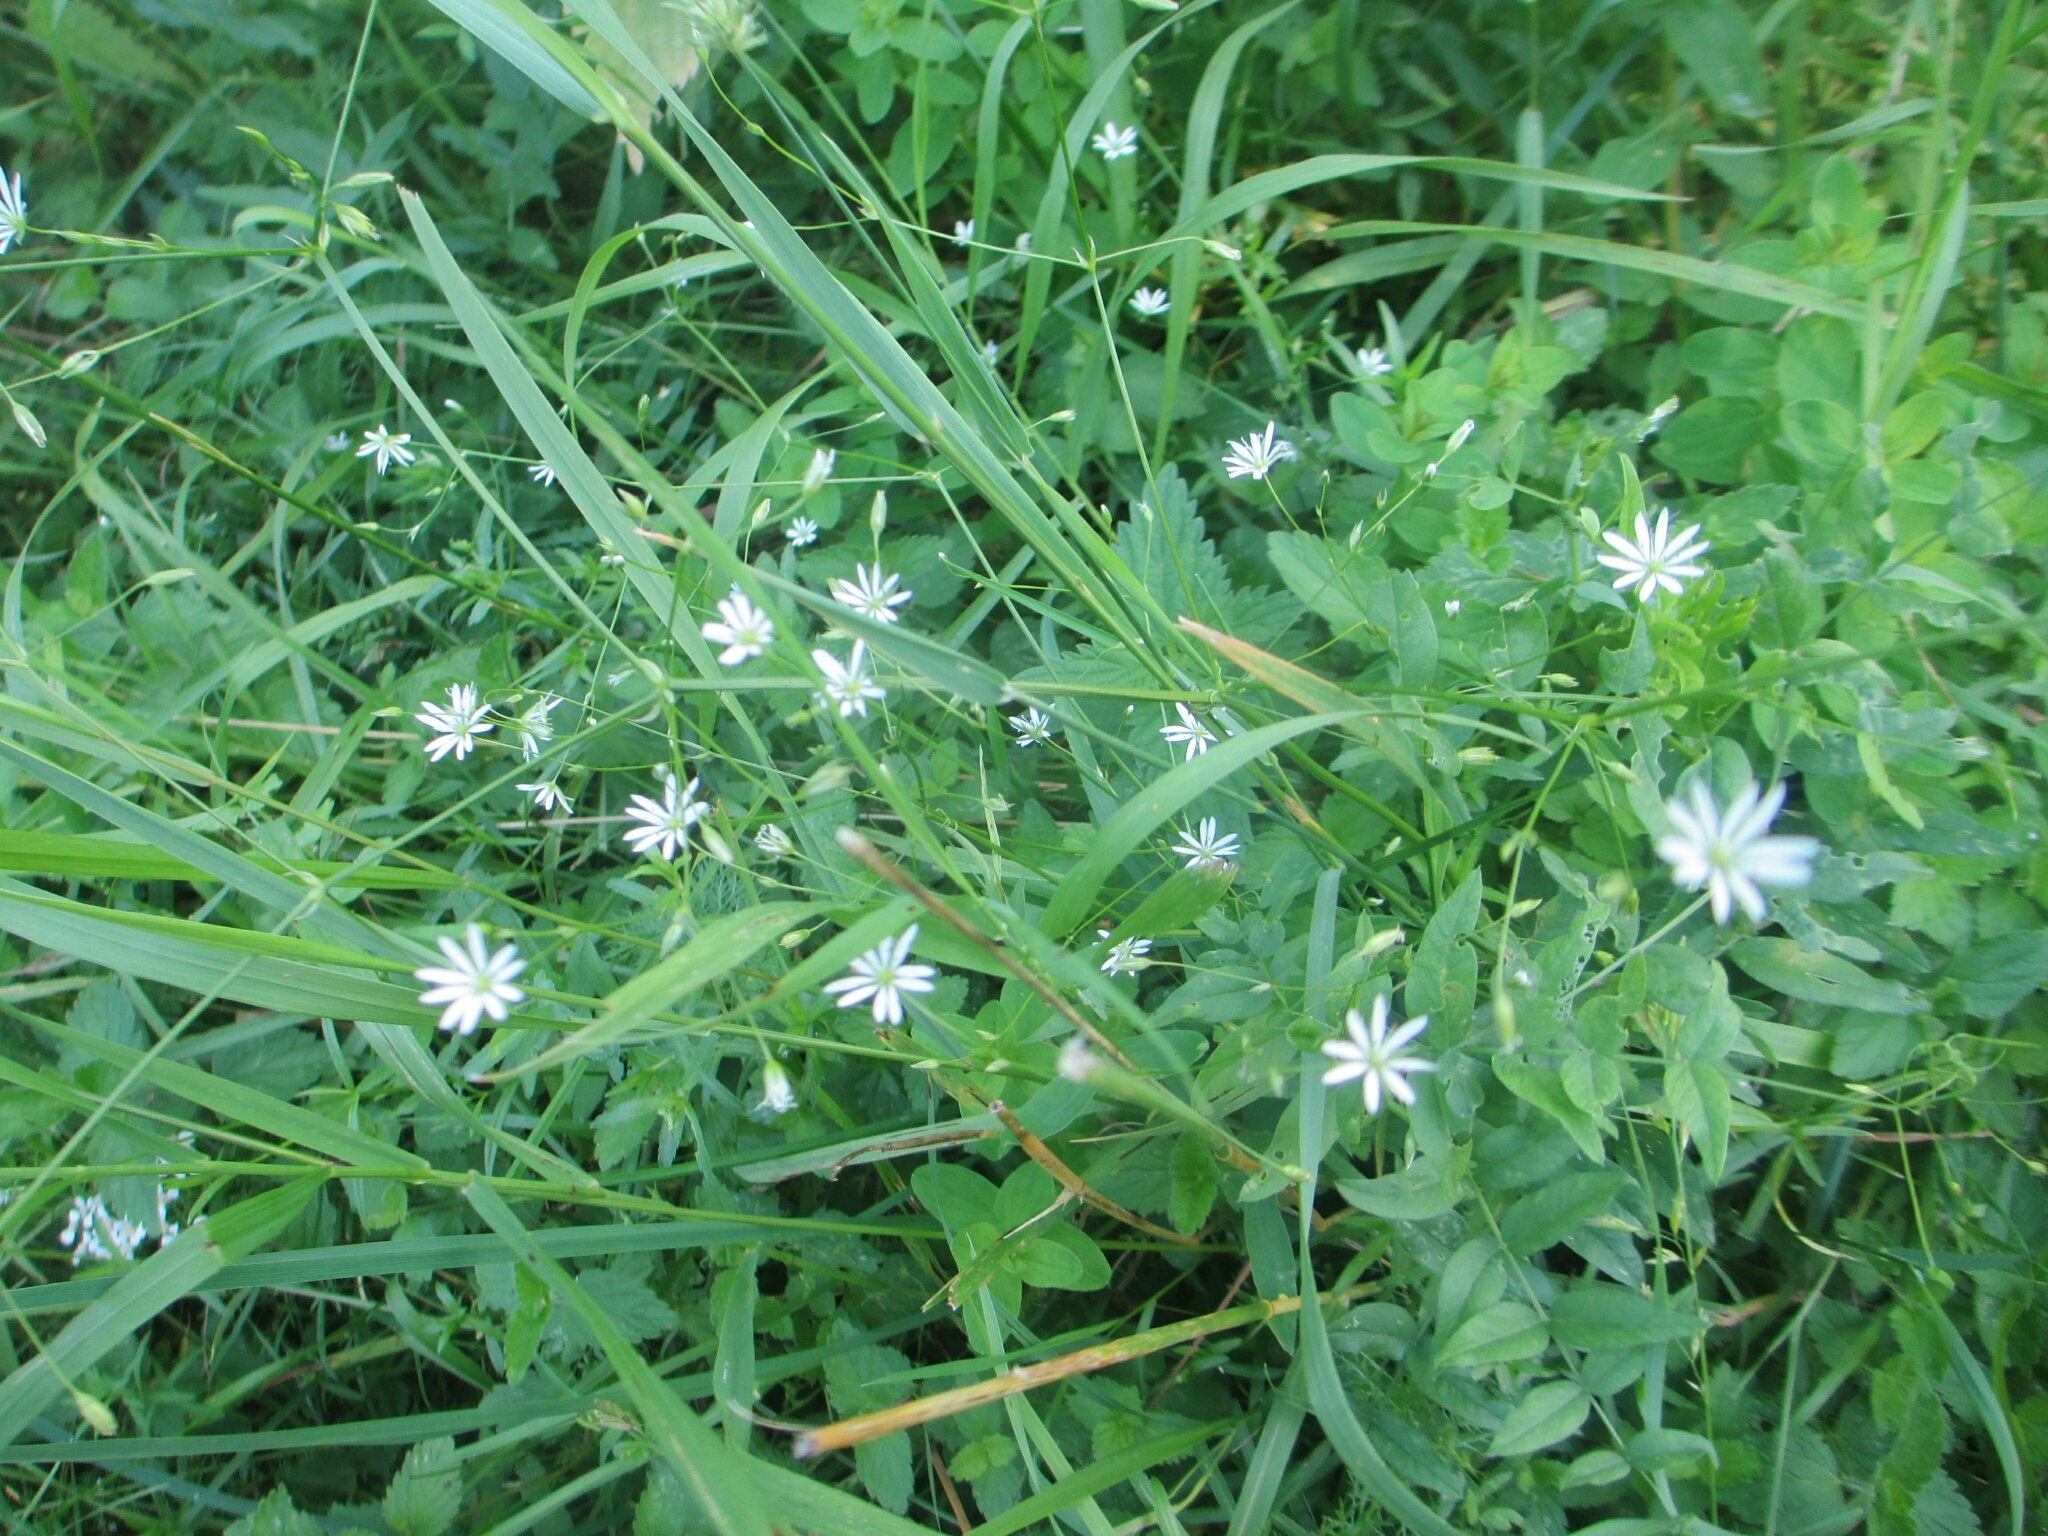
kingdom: Plantae
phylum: Tracheophyta
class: Magnoliopsida
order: Caryophyllales
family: Caryophyllaceae
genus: Stellaria
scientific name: Stellaria graminea
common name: Grass-like starwort
